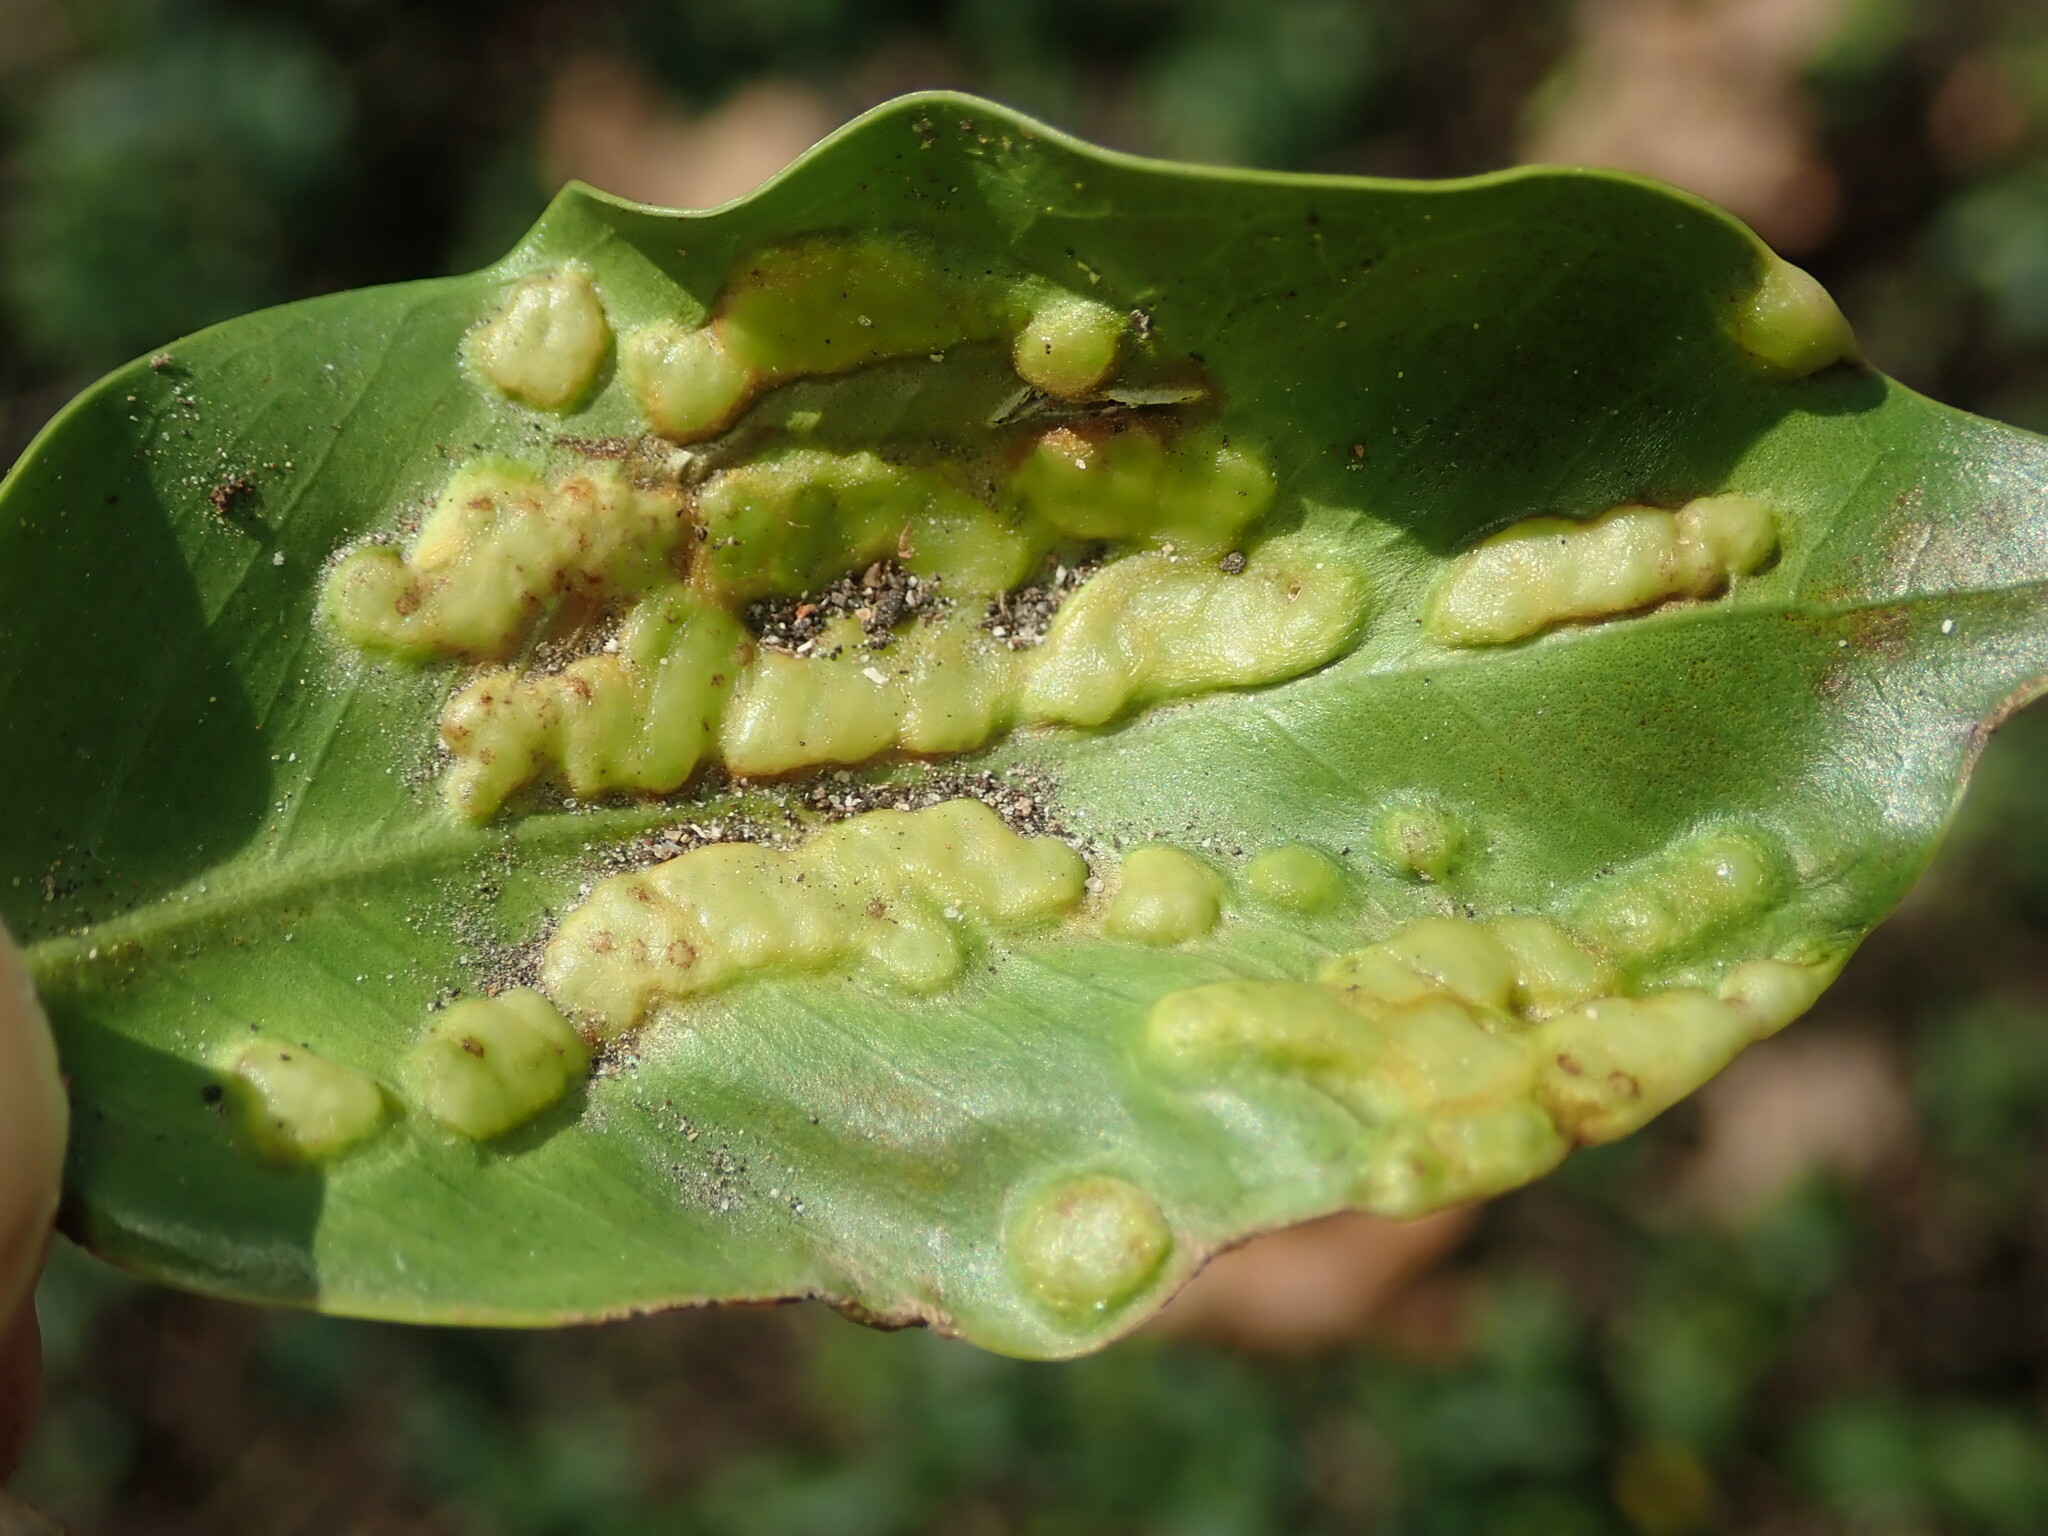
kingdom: Animalia
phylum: Arthropoda
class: Insecta
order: Hymenoptera
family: Agaonidae
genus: Josephiella
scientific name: Josephiella microcarpae
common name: Wasp
